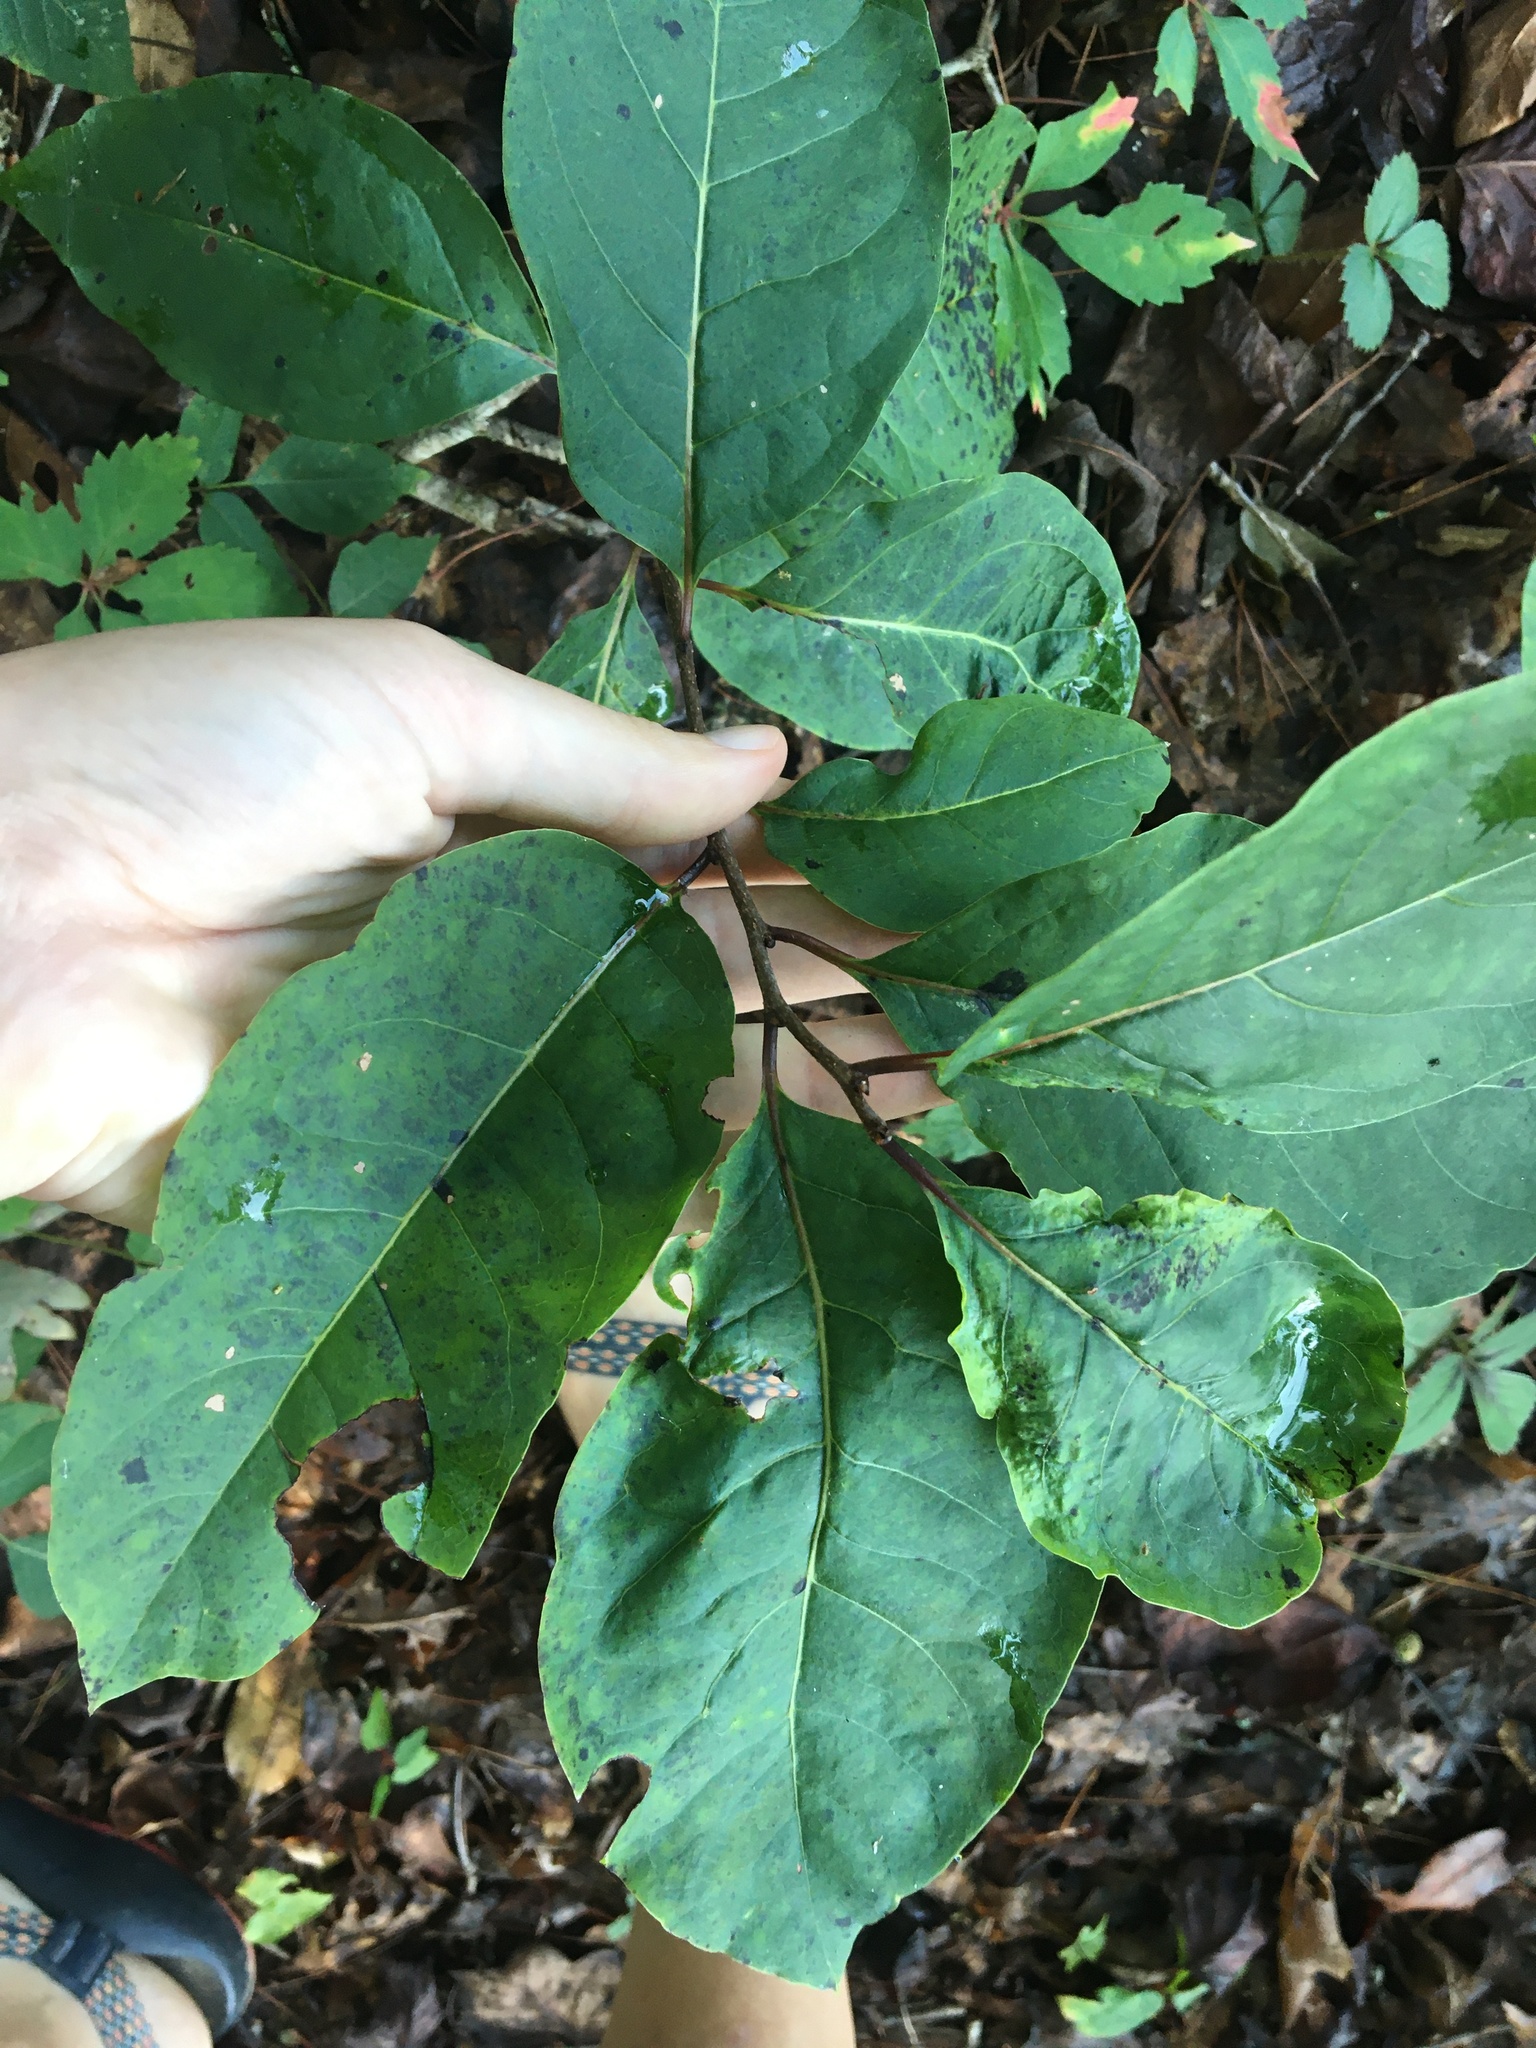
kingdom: Plantae
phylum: Tracheophyta
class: Magnoliopsida
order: Ericales
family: Ebenaceae
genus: Diospyros
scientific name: Diospyros virginiana
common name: Persimmon
